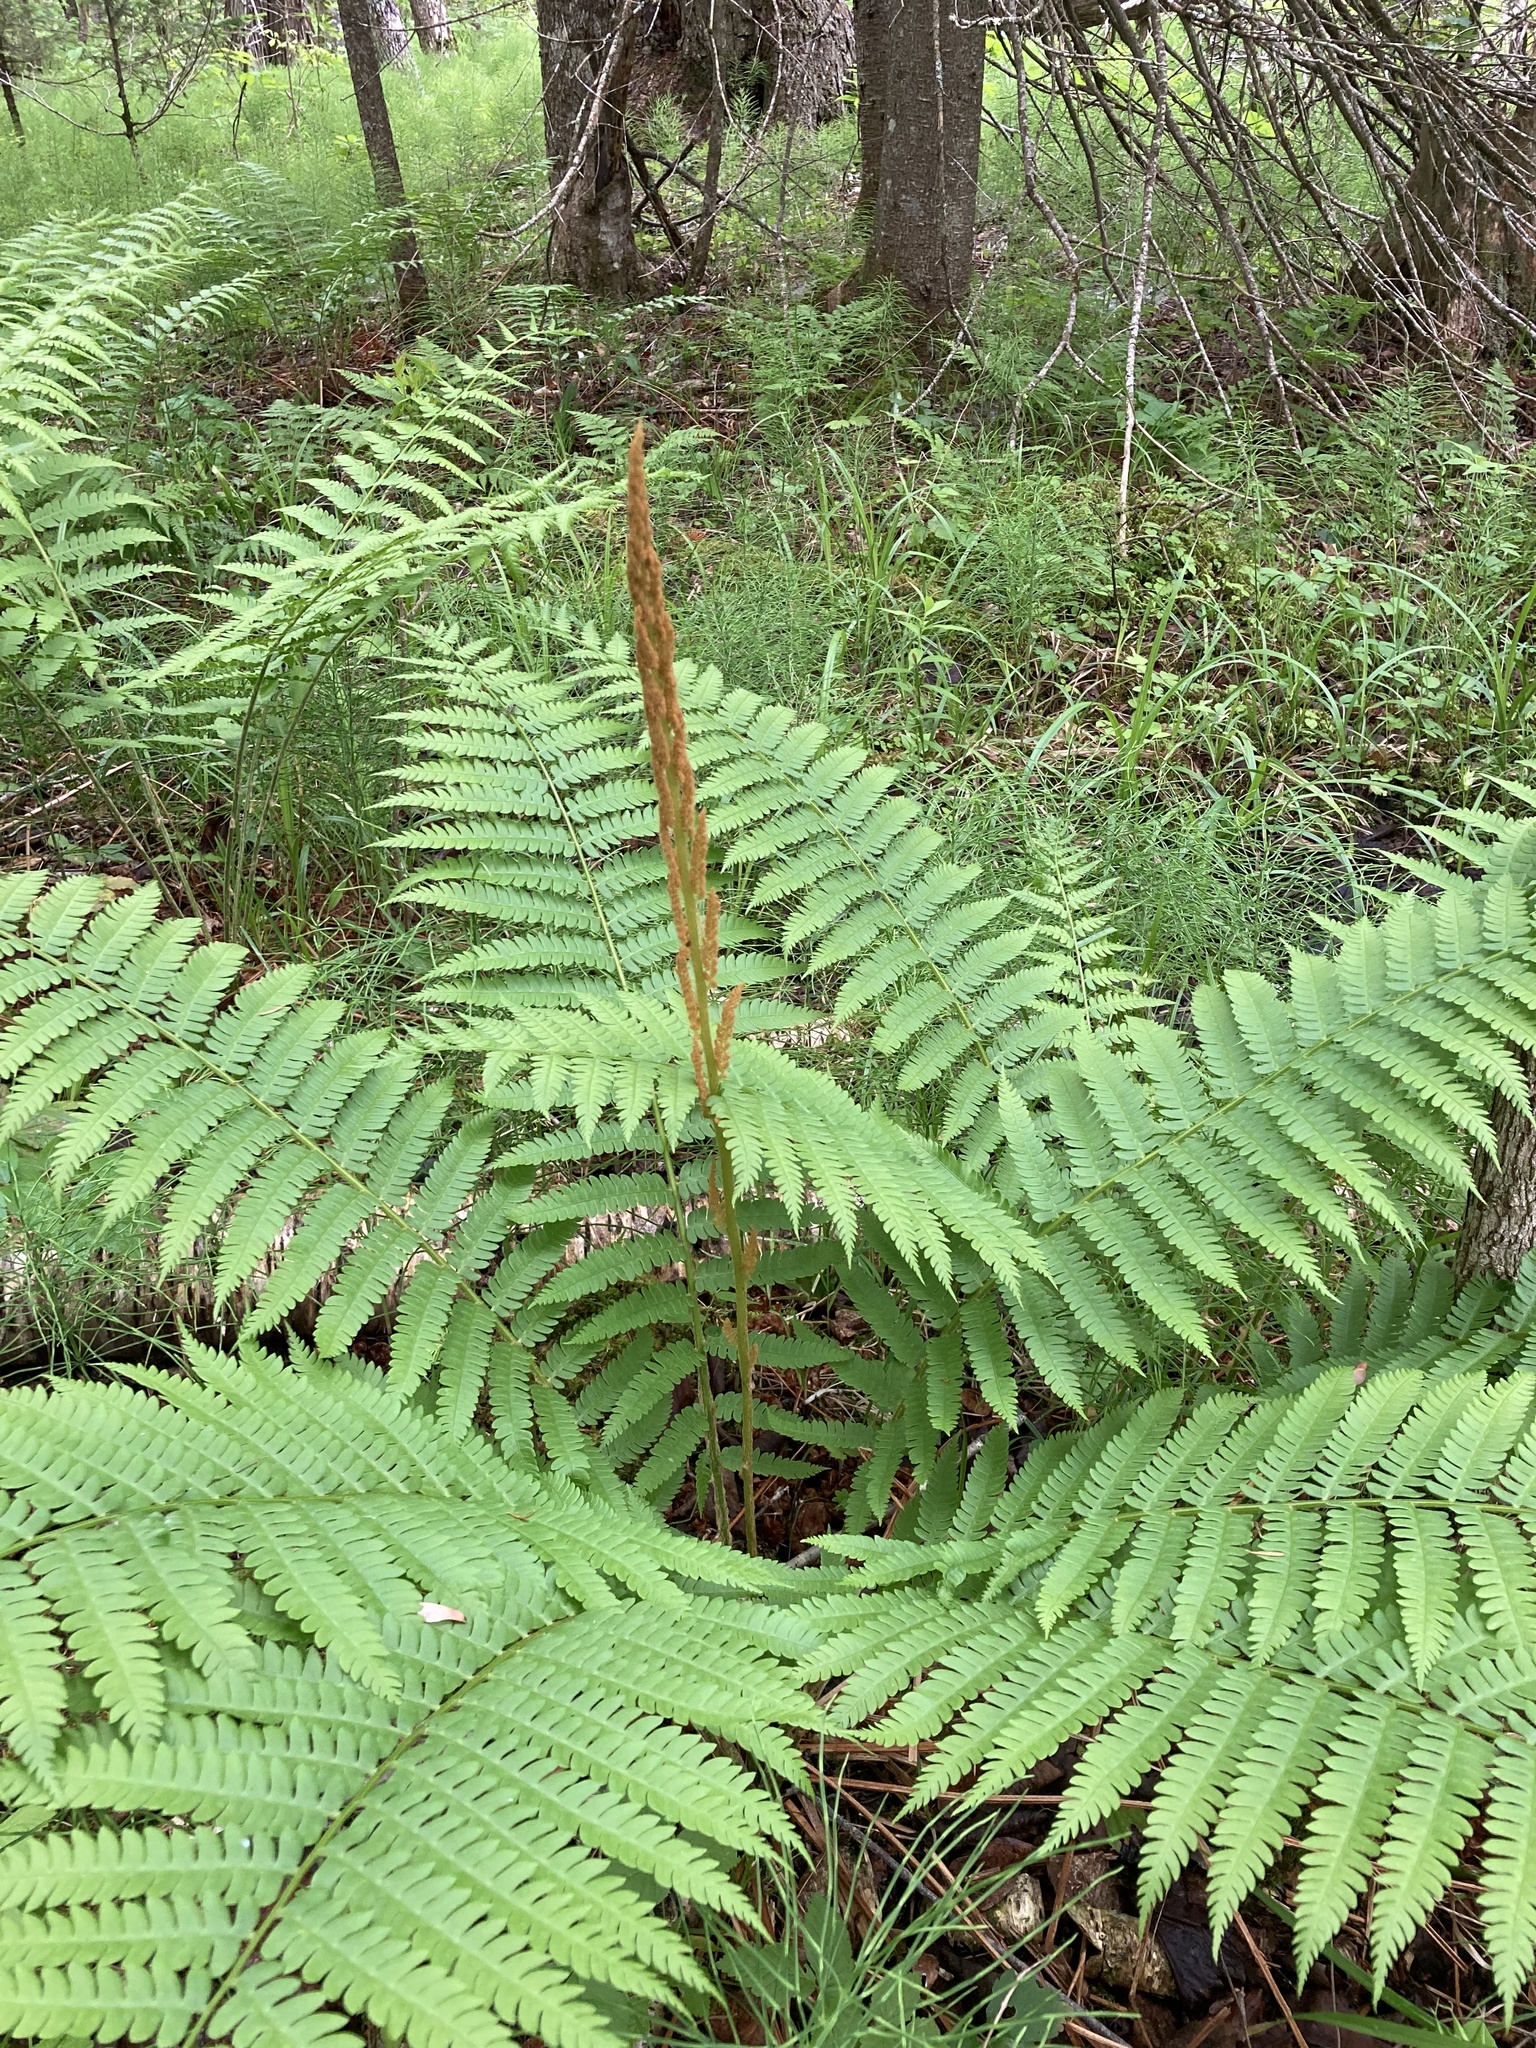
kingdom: Plantae
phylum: Tracheophyta
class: Polypodiopsida
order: Osmundales
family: Osmundaceae
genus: Osmundastrum
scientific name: Osmundastrum cinnamomeum
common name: Cinnamon fern
